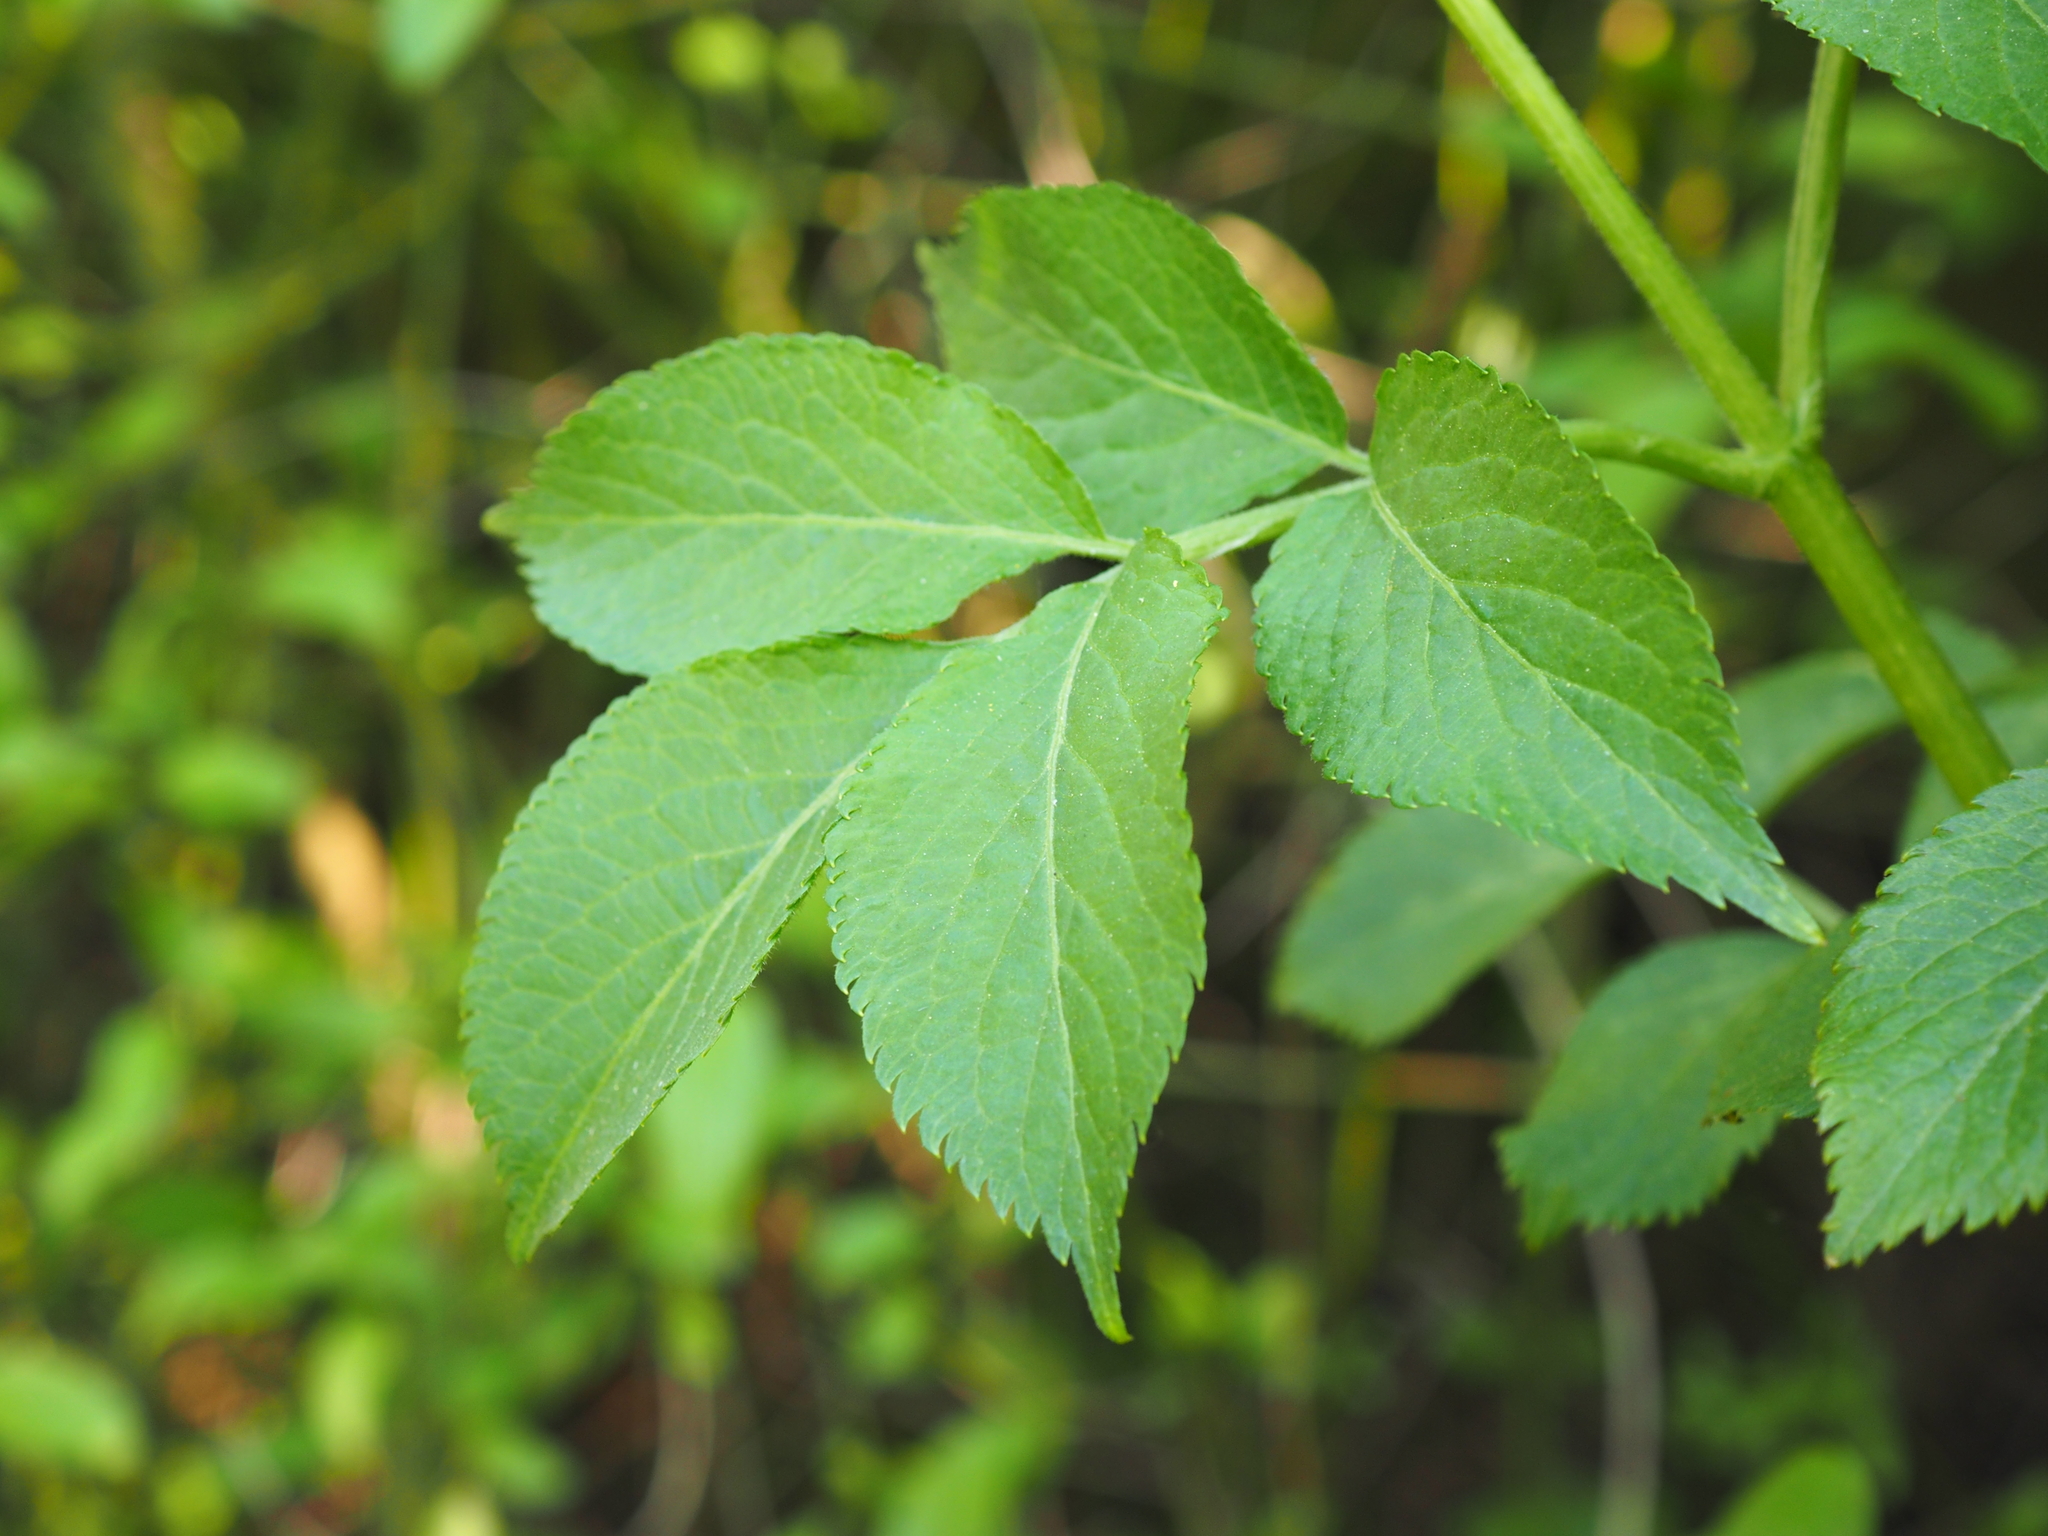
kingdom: Plantae
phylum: Tracheophyta
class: Magnoliopsida
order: Dipsacales
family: Viburnaceae
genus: Sambucus
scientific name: Sambucus nigra
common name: Elder
